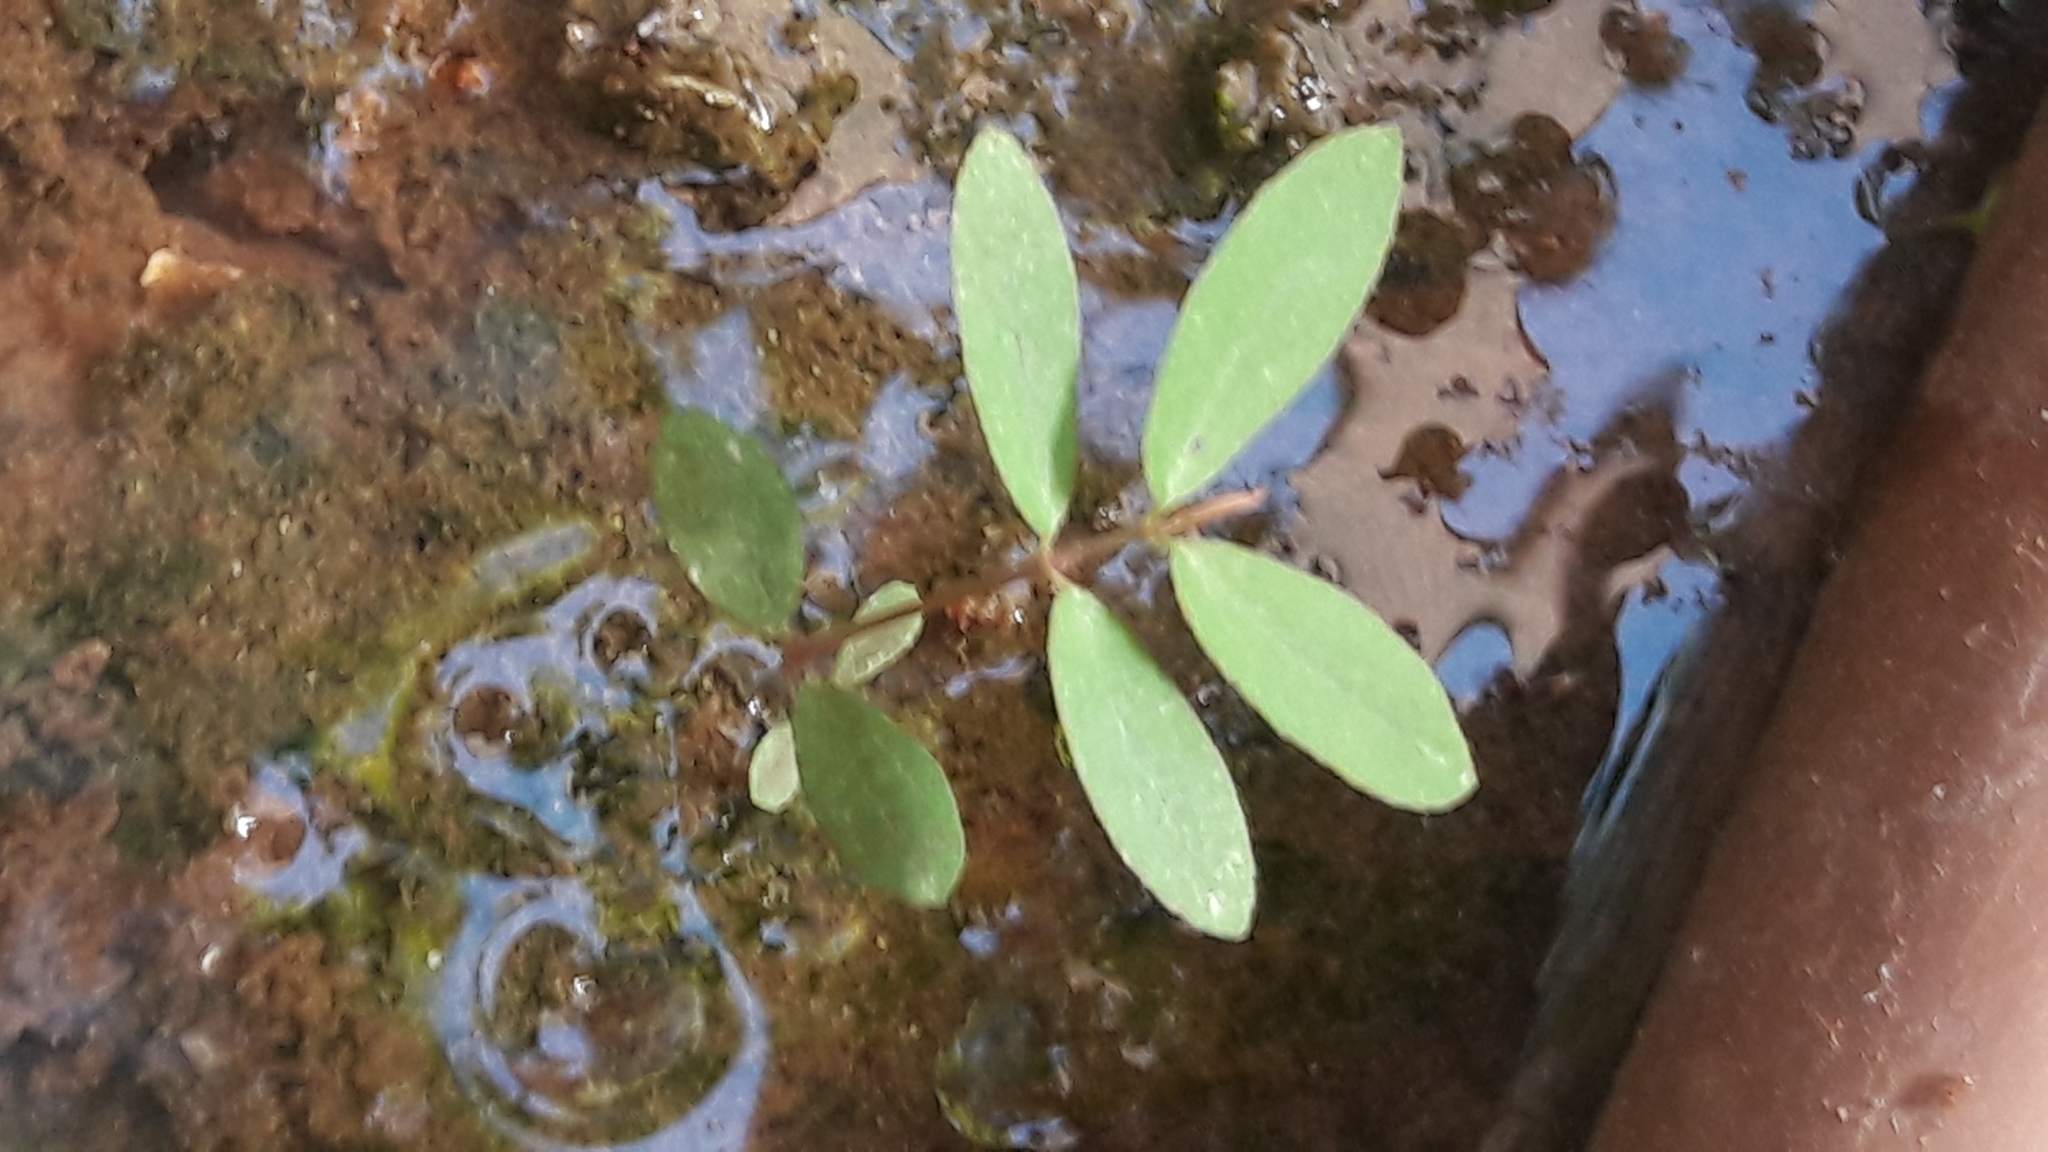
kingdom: Plantae
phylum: Tracheophyta
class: Magnoliopsida
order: Malpighiales
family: Euphorbiaceae
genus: Euphorbia
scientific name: Euphorbia hypericifolia
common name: Graceful sandmat
